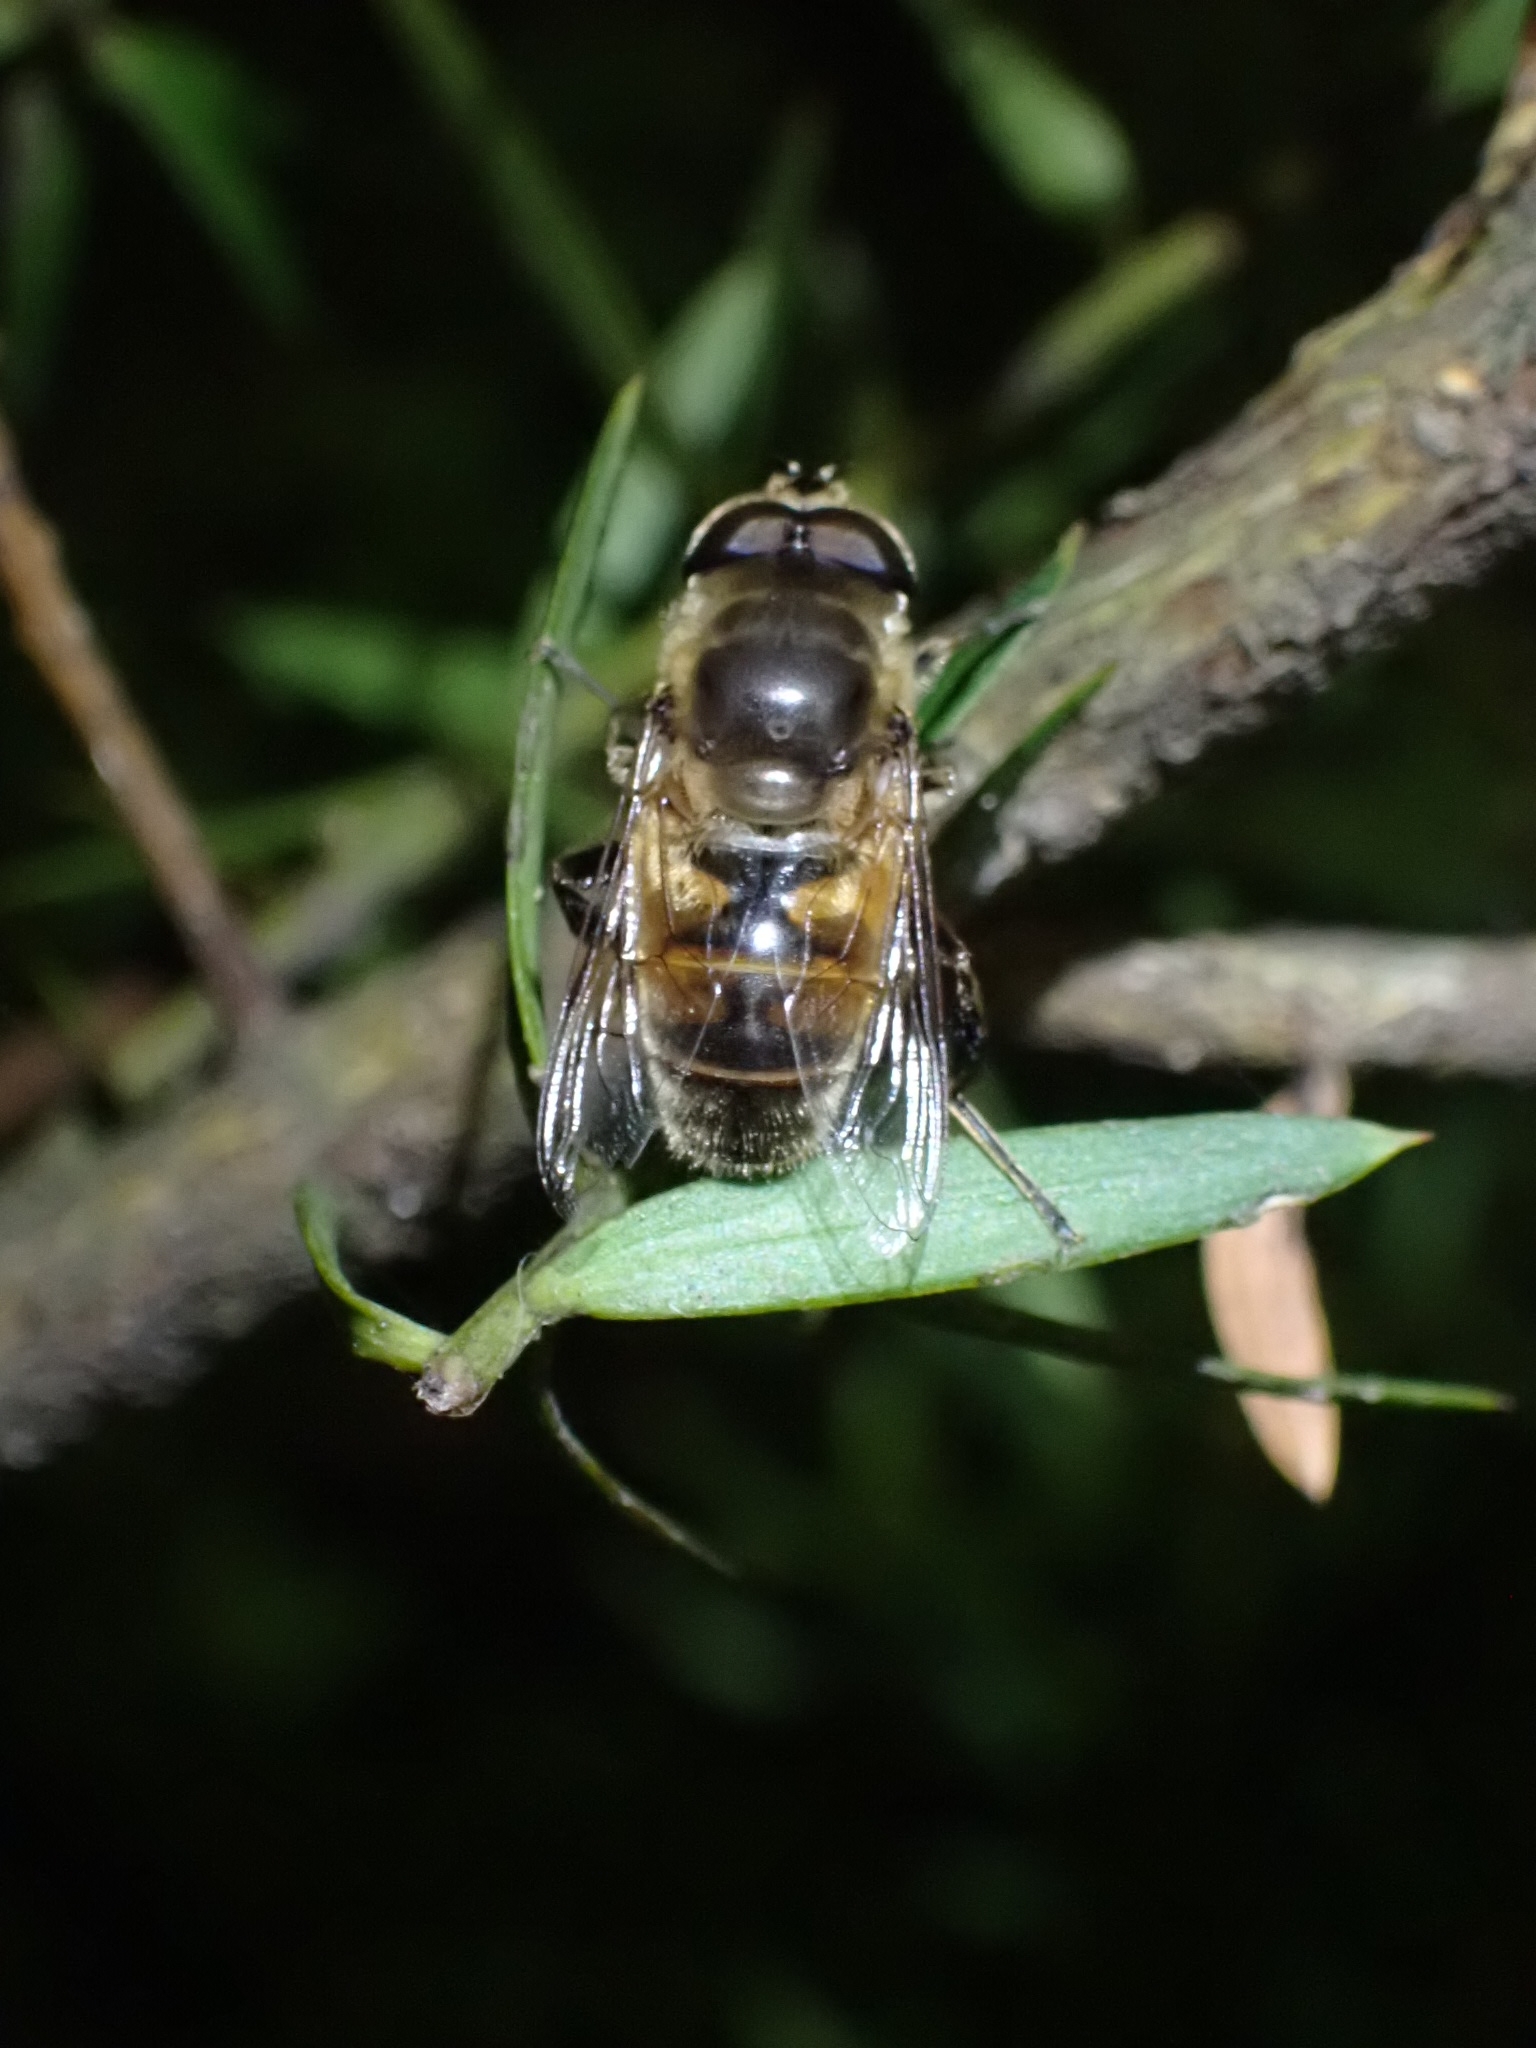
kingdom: Animalia
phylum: Arthropoda
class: Insecta
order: Diptera
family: Syrphidae
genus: Eristalis
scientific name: Eristalis tenax
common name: Drone fly
